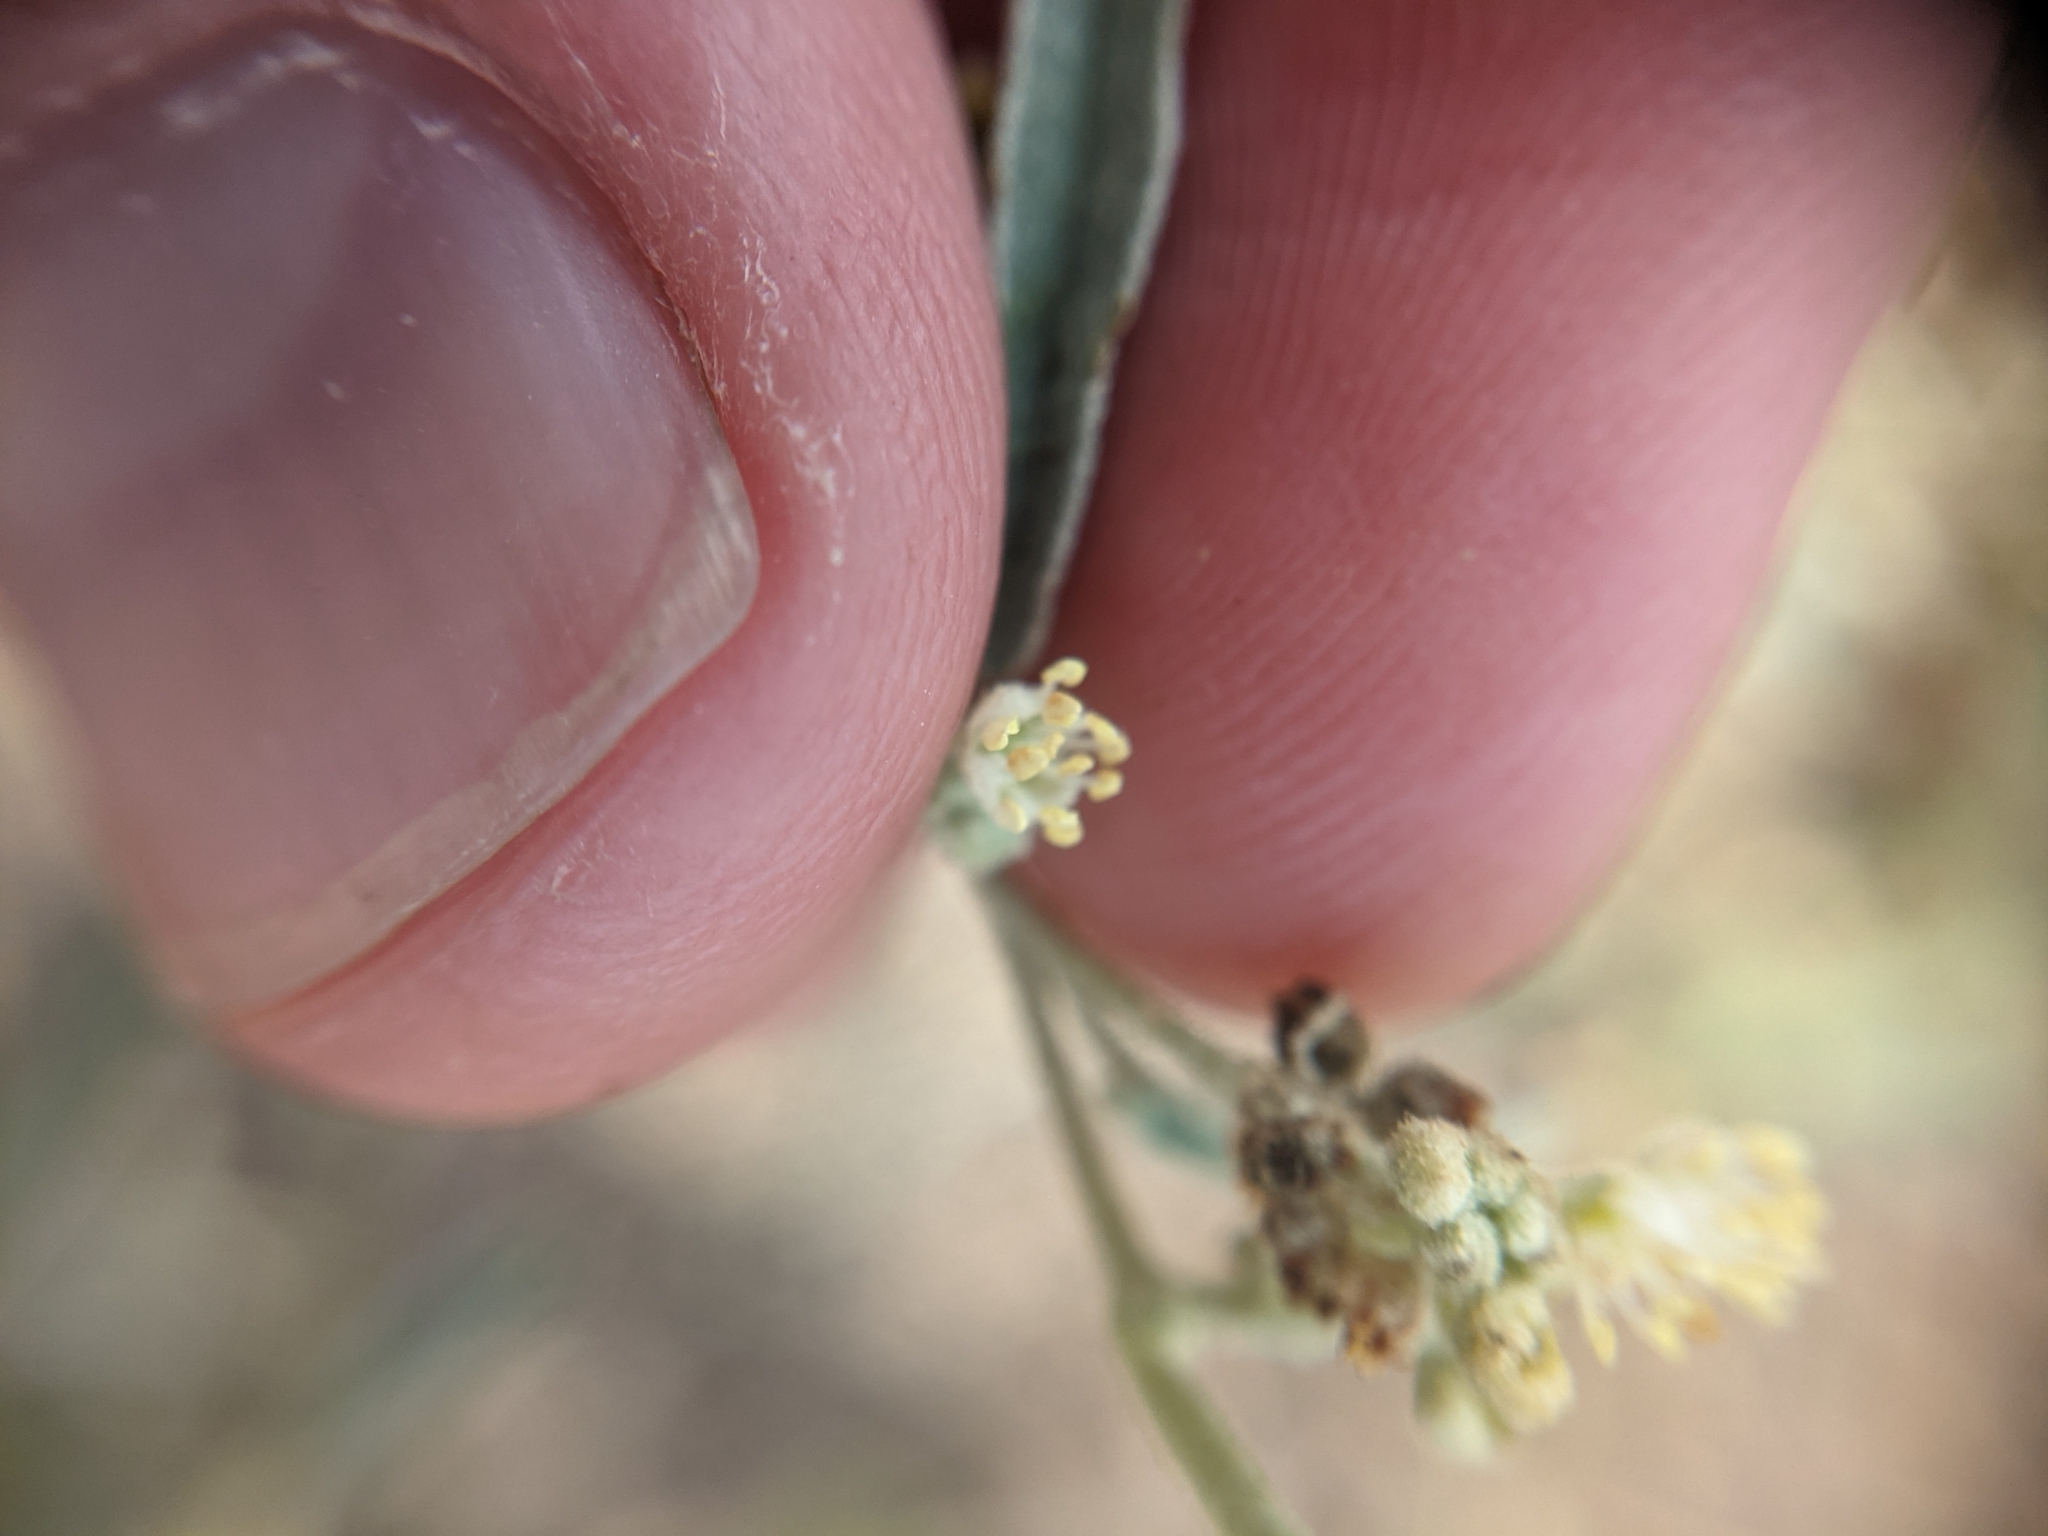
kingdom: Plantae
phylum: Tracheophyta
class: Magnoliopsida
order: Malpighiales
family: Euphorbiaceae
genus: Croton
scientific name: Croton texensis
